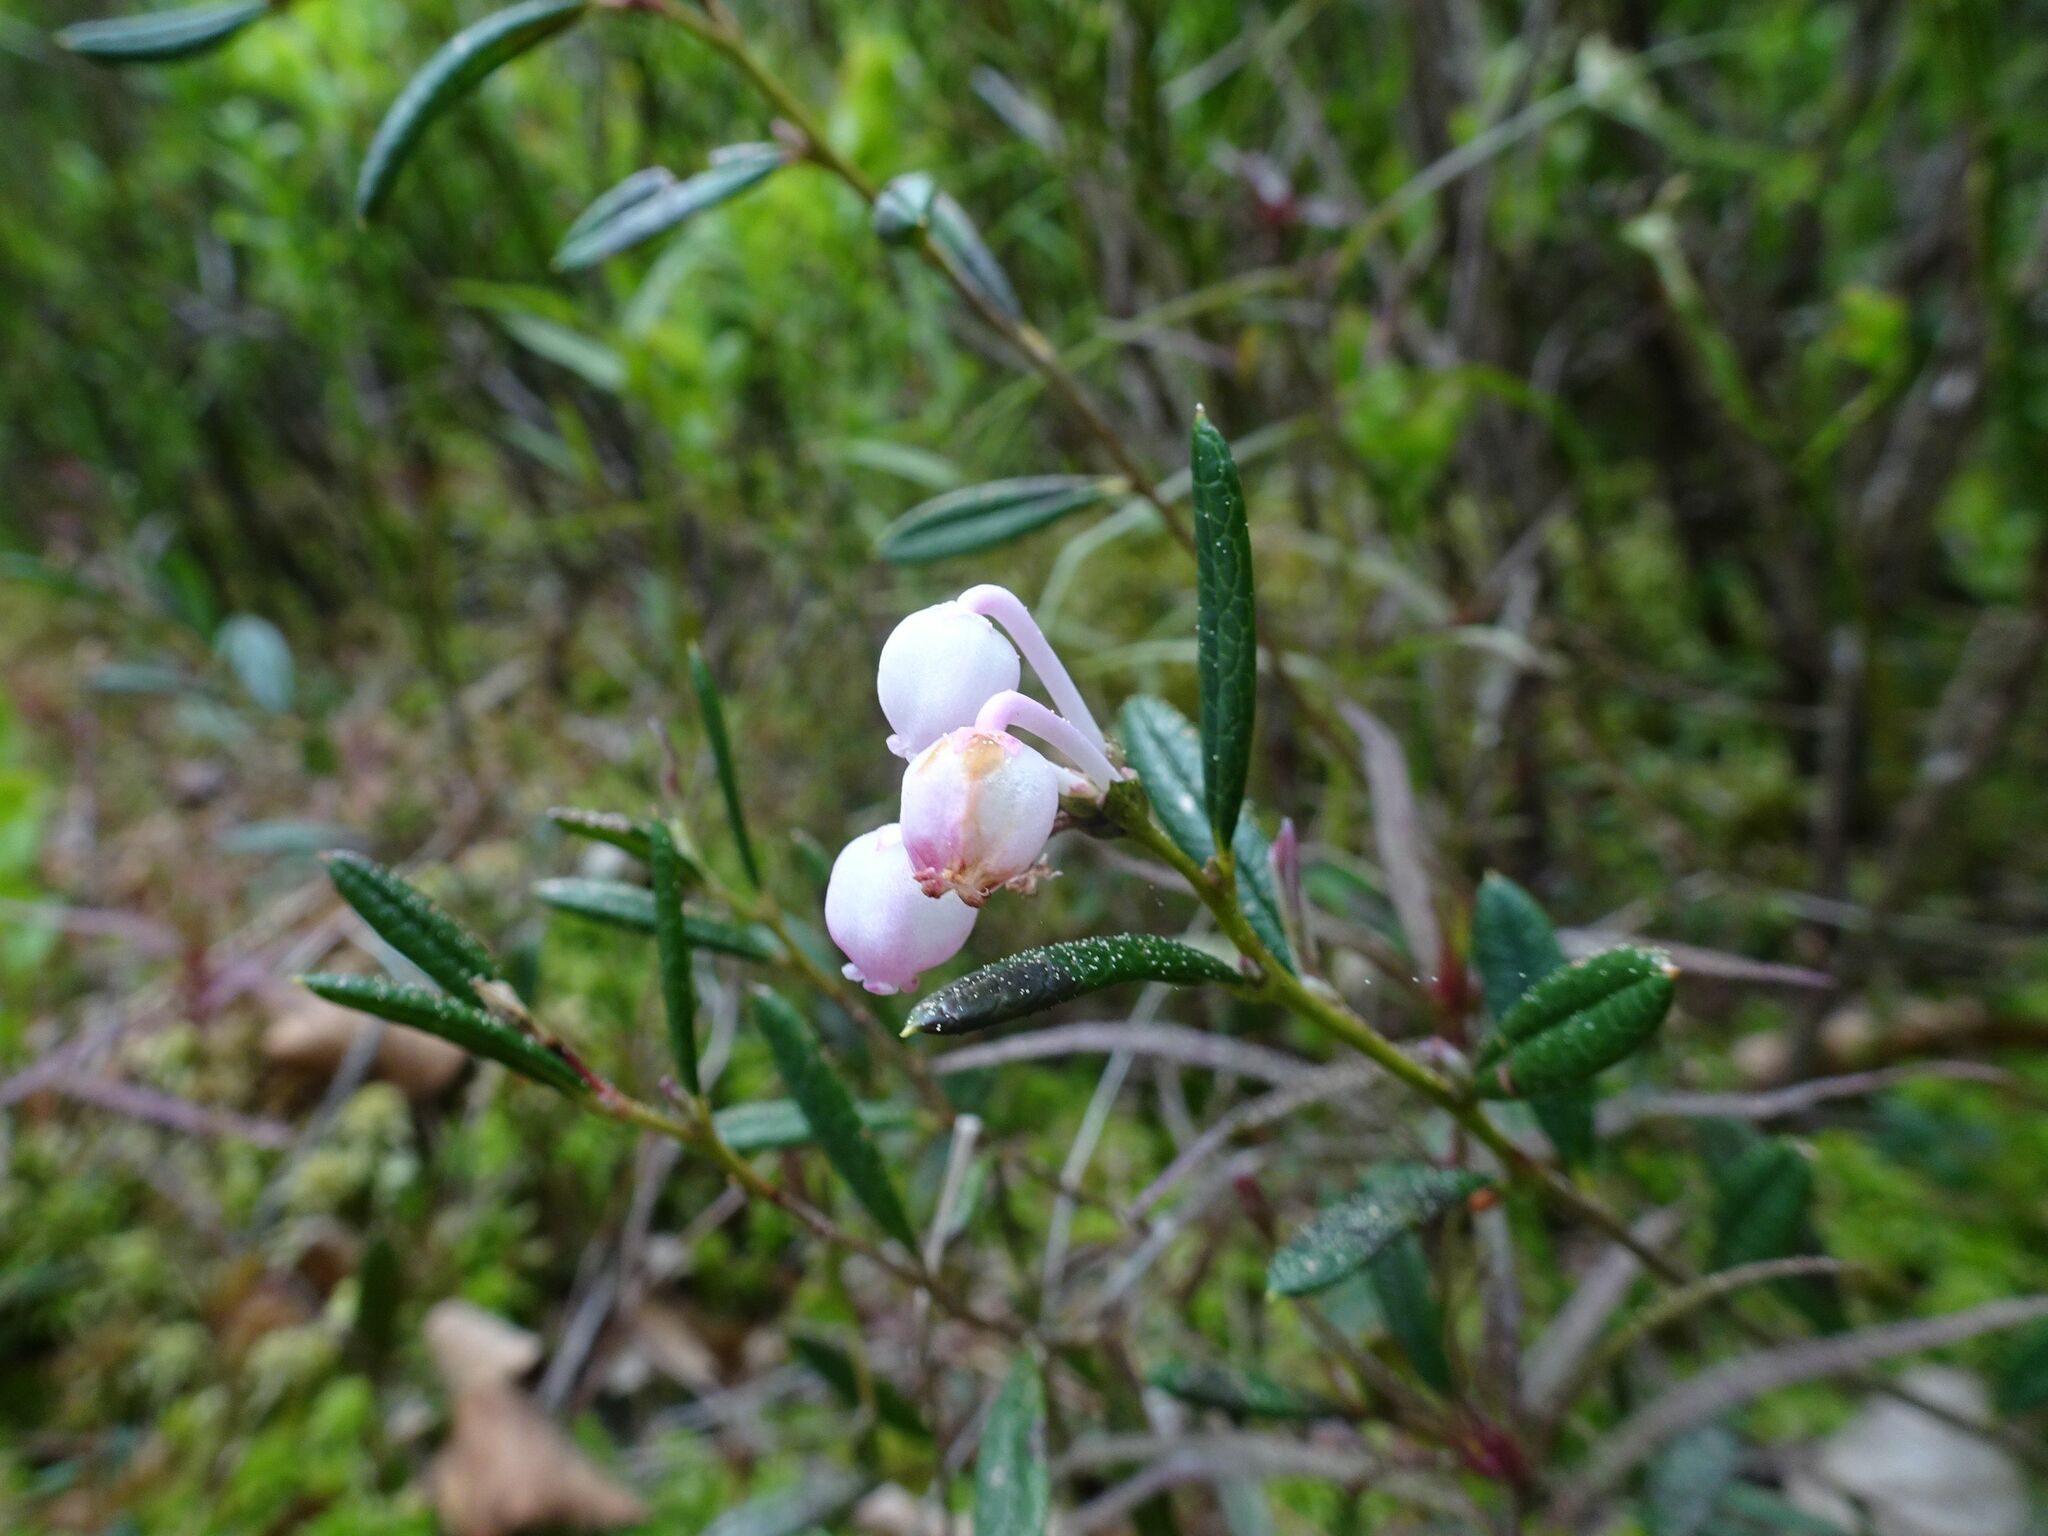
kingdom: Plantae
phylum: Tracheophyta
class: Magnoliopsida
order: Ericales
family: Ericaceae
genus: Andromeda
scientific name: Andromeda polifolia
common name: Bog-rosemary
